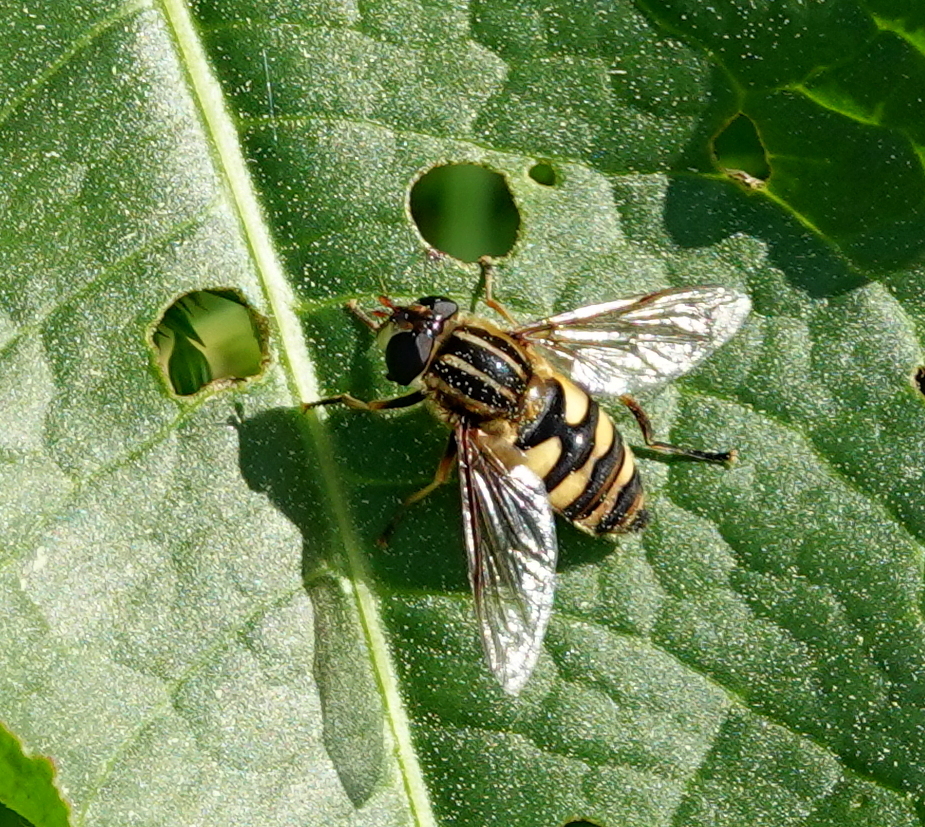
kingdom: Animalia
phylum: Arthropoda
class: Insecta
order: Diptera
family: Syrphidae
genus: Helophilus
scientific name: Helophilus fasciatus
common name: Narrow-headed marsh fly
